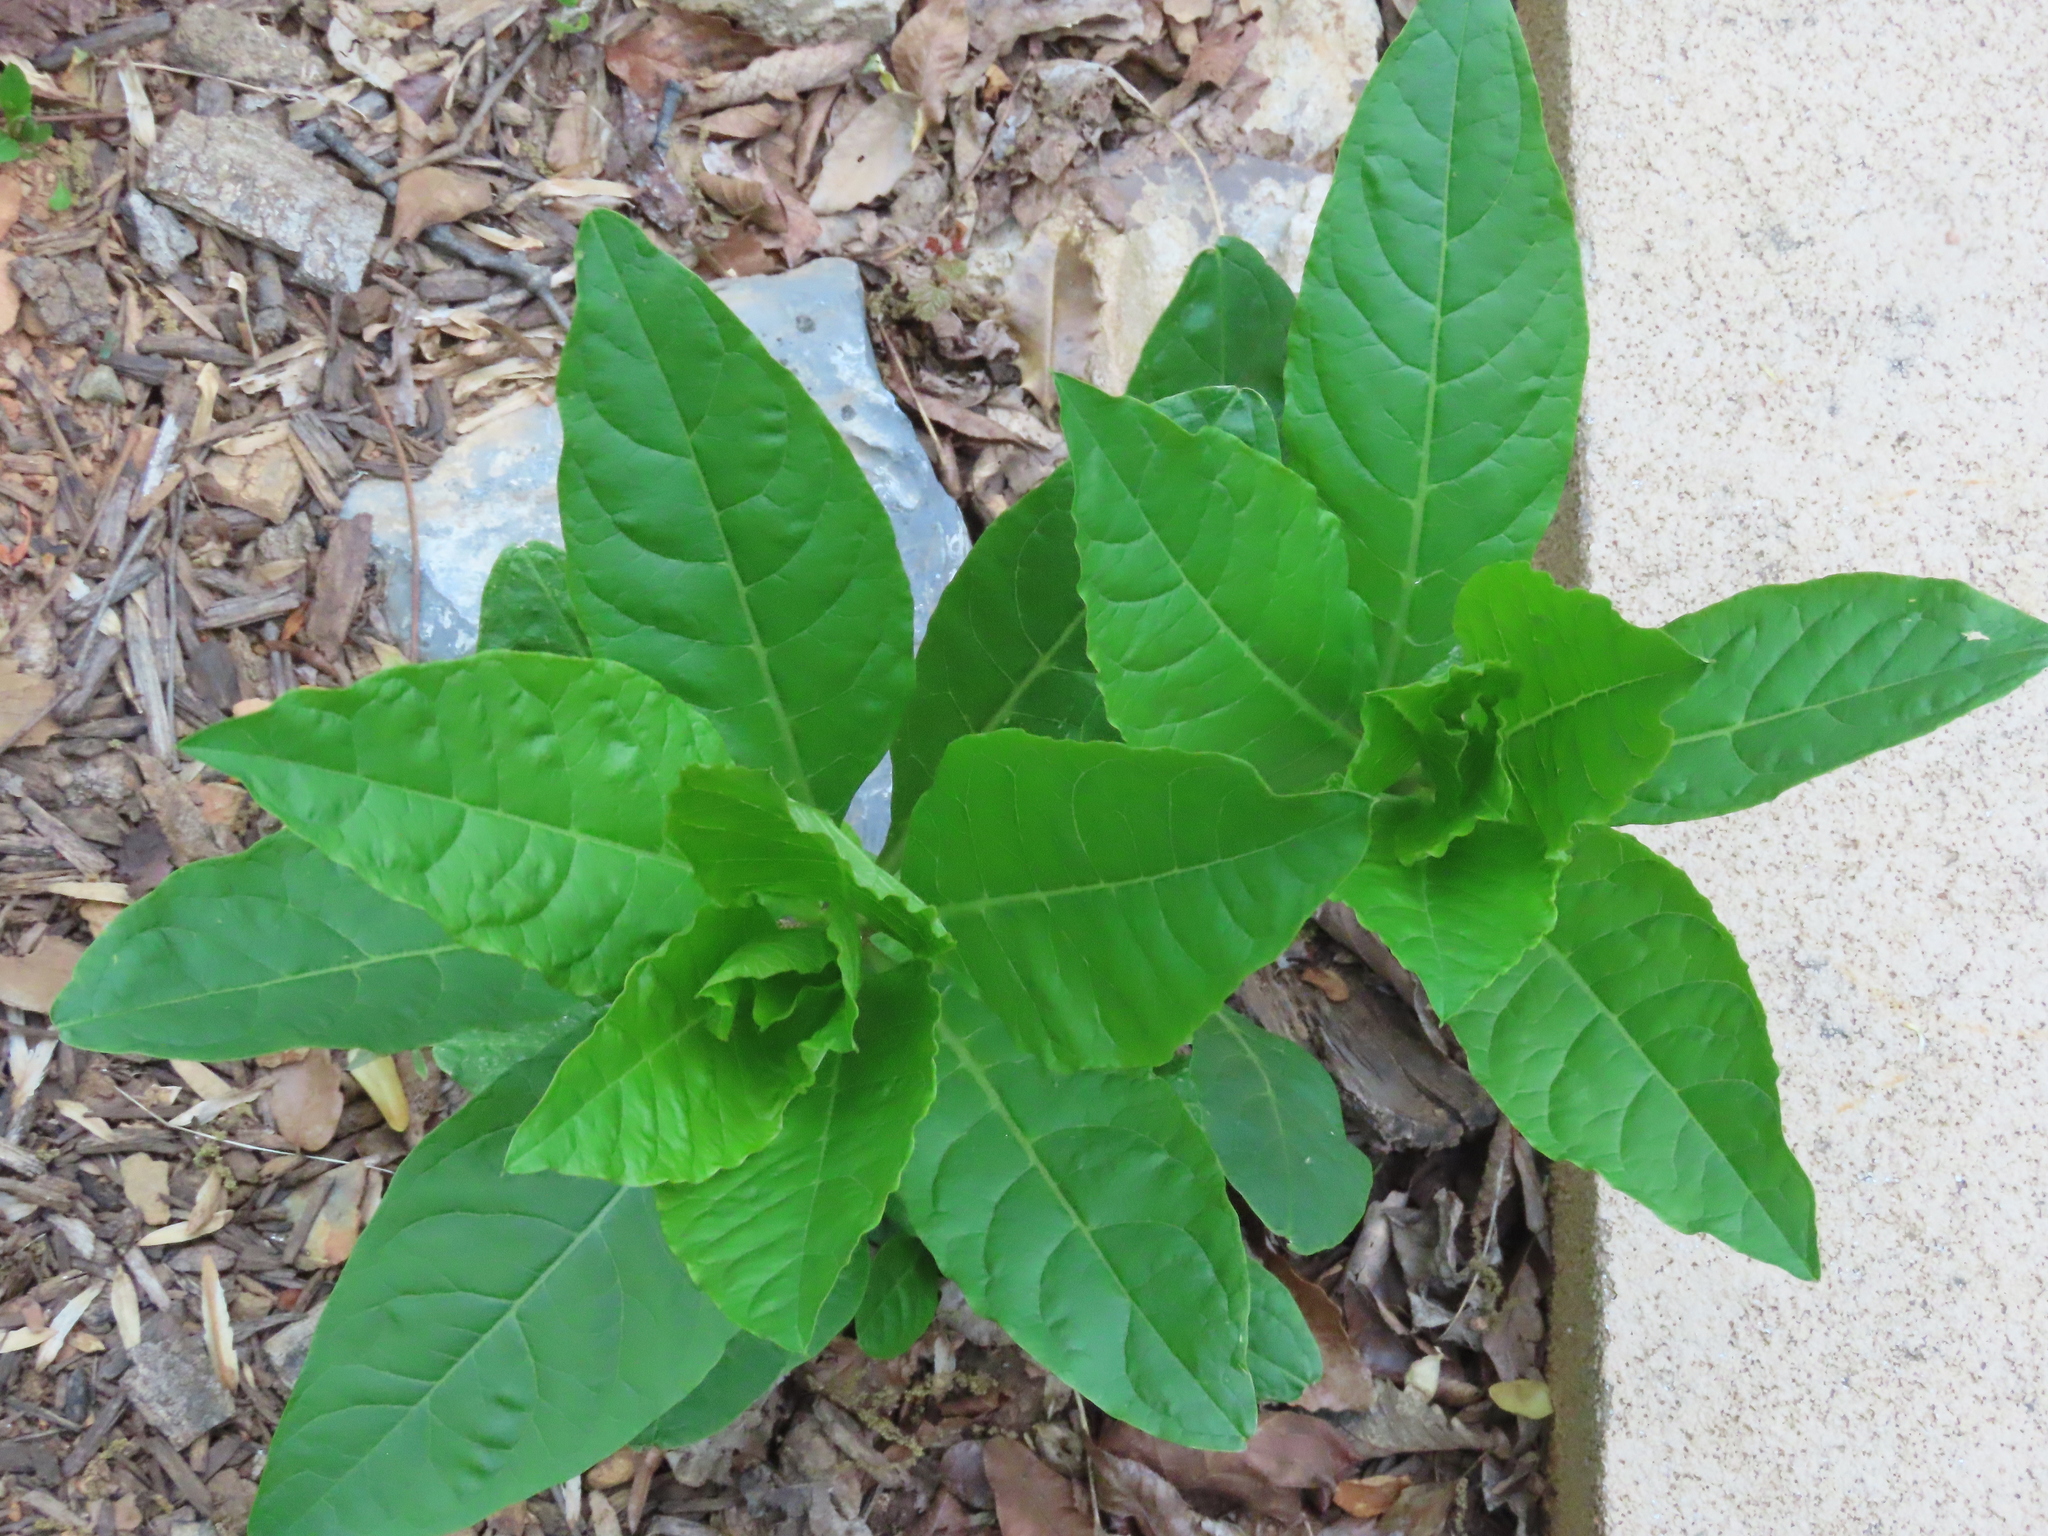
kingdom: Plantae
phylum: Tracheophyta
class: Magnoliopsida
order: Caryophyllales
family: Phytolaccaceae
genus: Phytolacca
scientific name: Phytolacca americana
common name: American pokeweed
